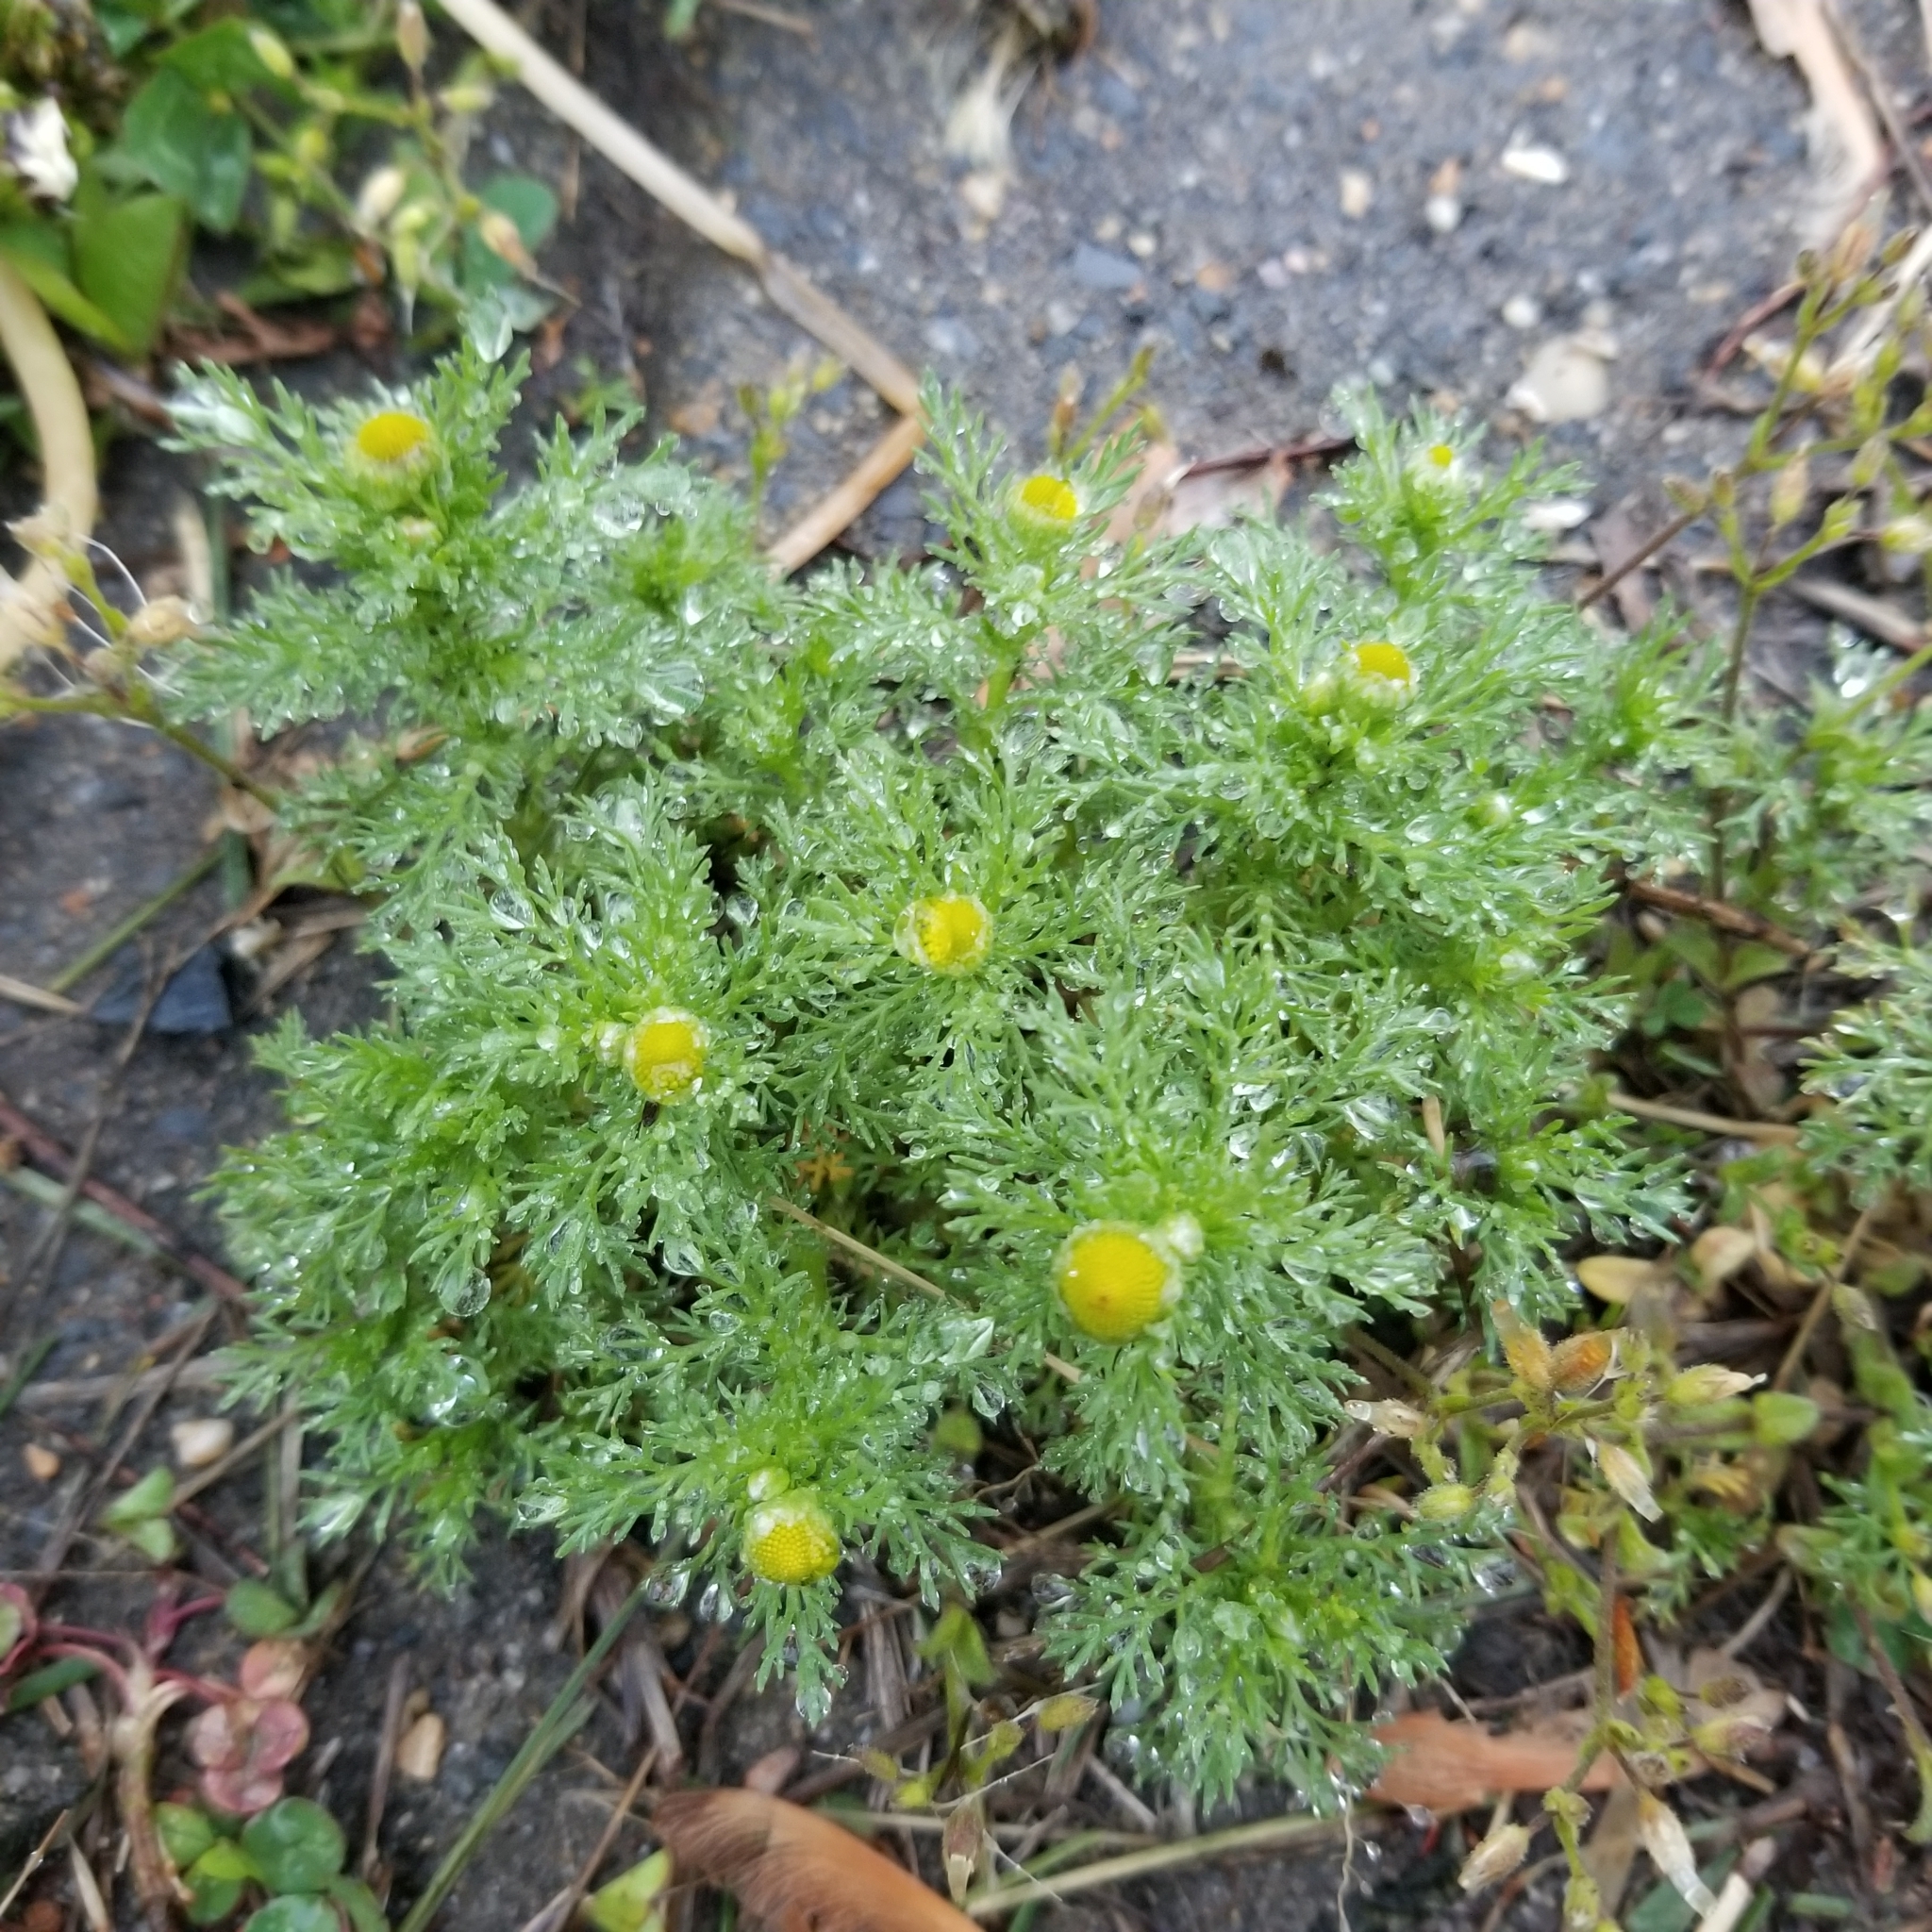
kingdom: Plantae
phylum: Tracheophyta
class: Magnoliopsida
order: Asterales
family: Asteraceae
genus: Matricaria
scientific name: Matricaria discoidea
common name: Disc mayweed
